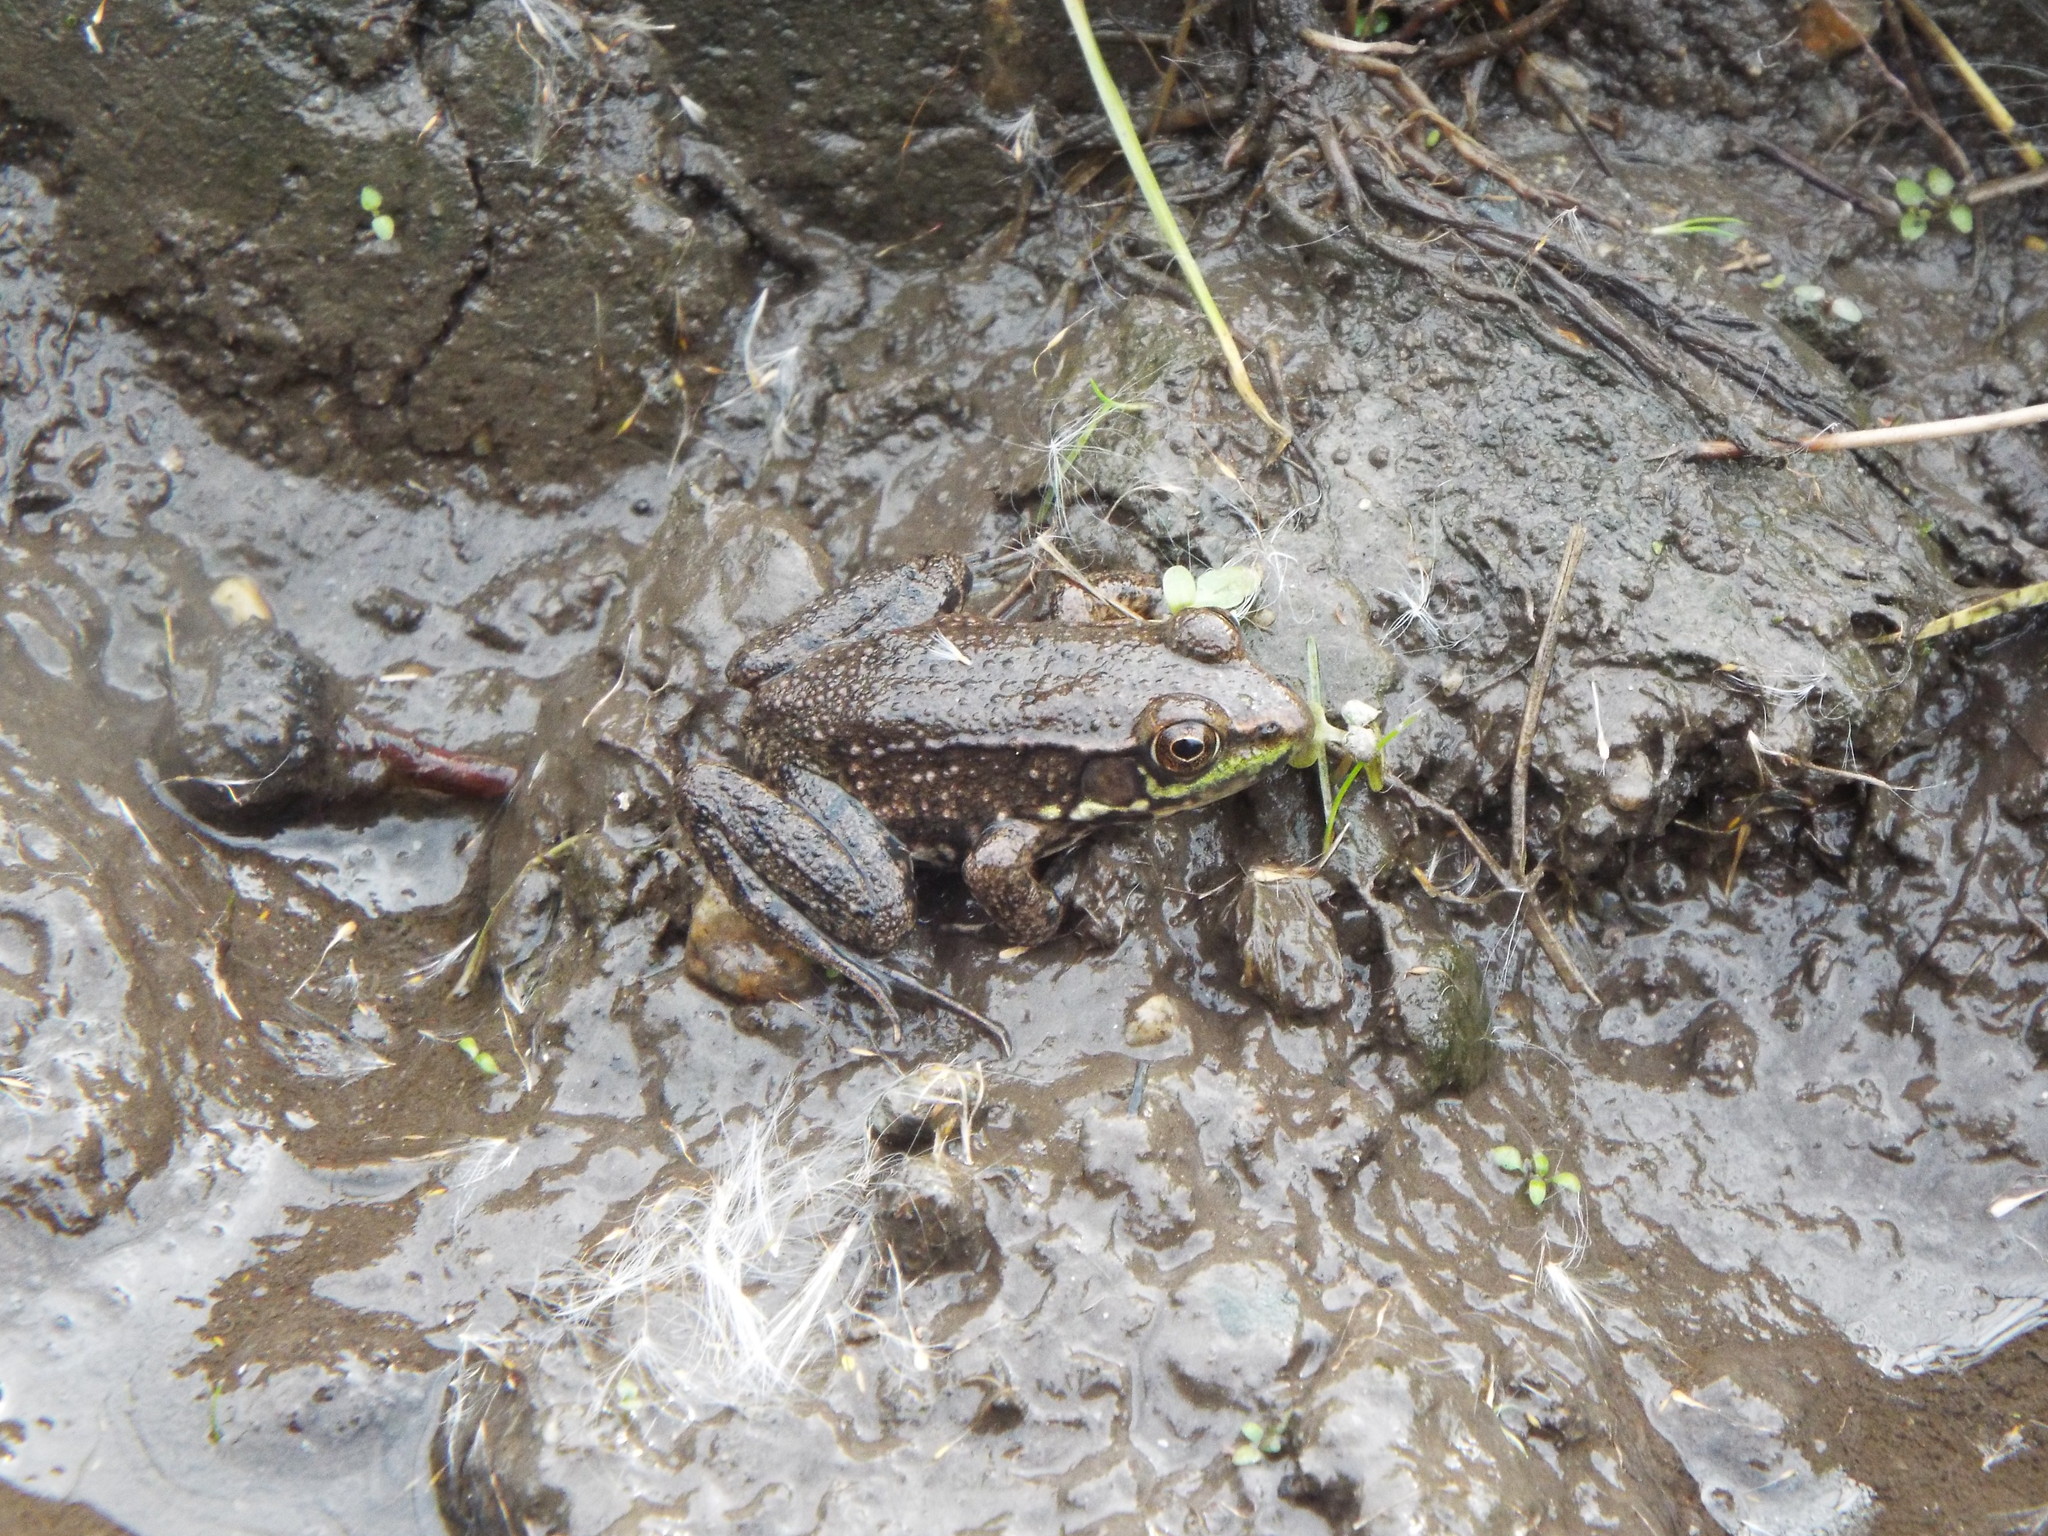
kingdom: Animalia
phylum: Chordata
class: Amphibia
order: Anura
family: Ranidae
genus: Lithobates
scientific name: Lithobates clamitans
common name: Green frog
